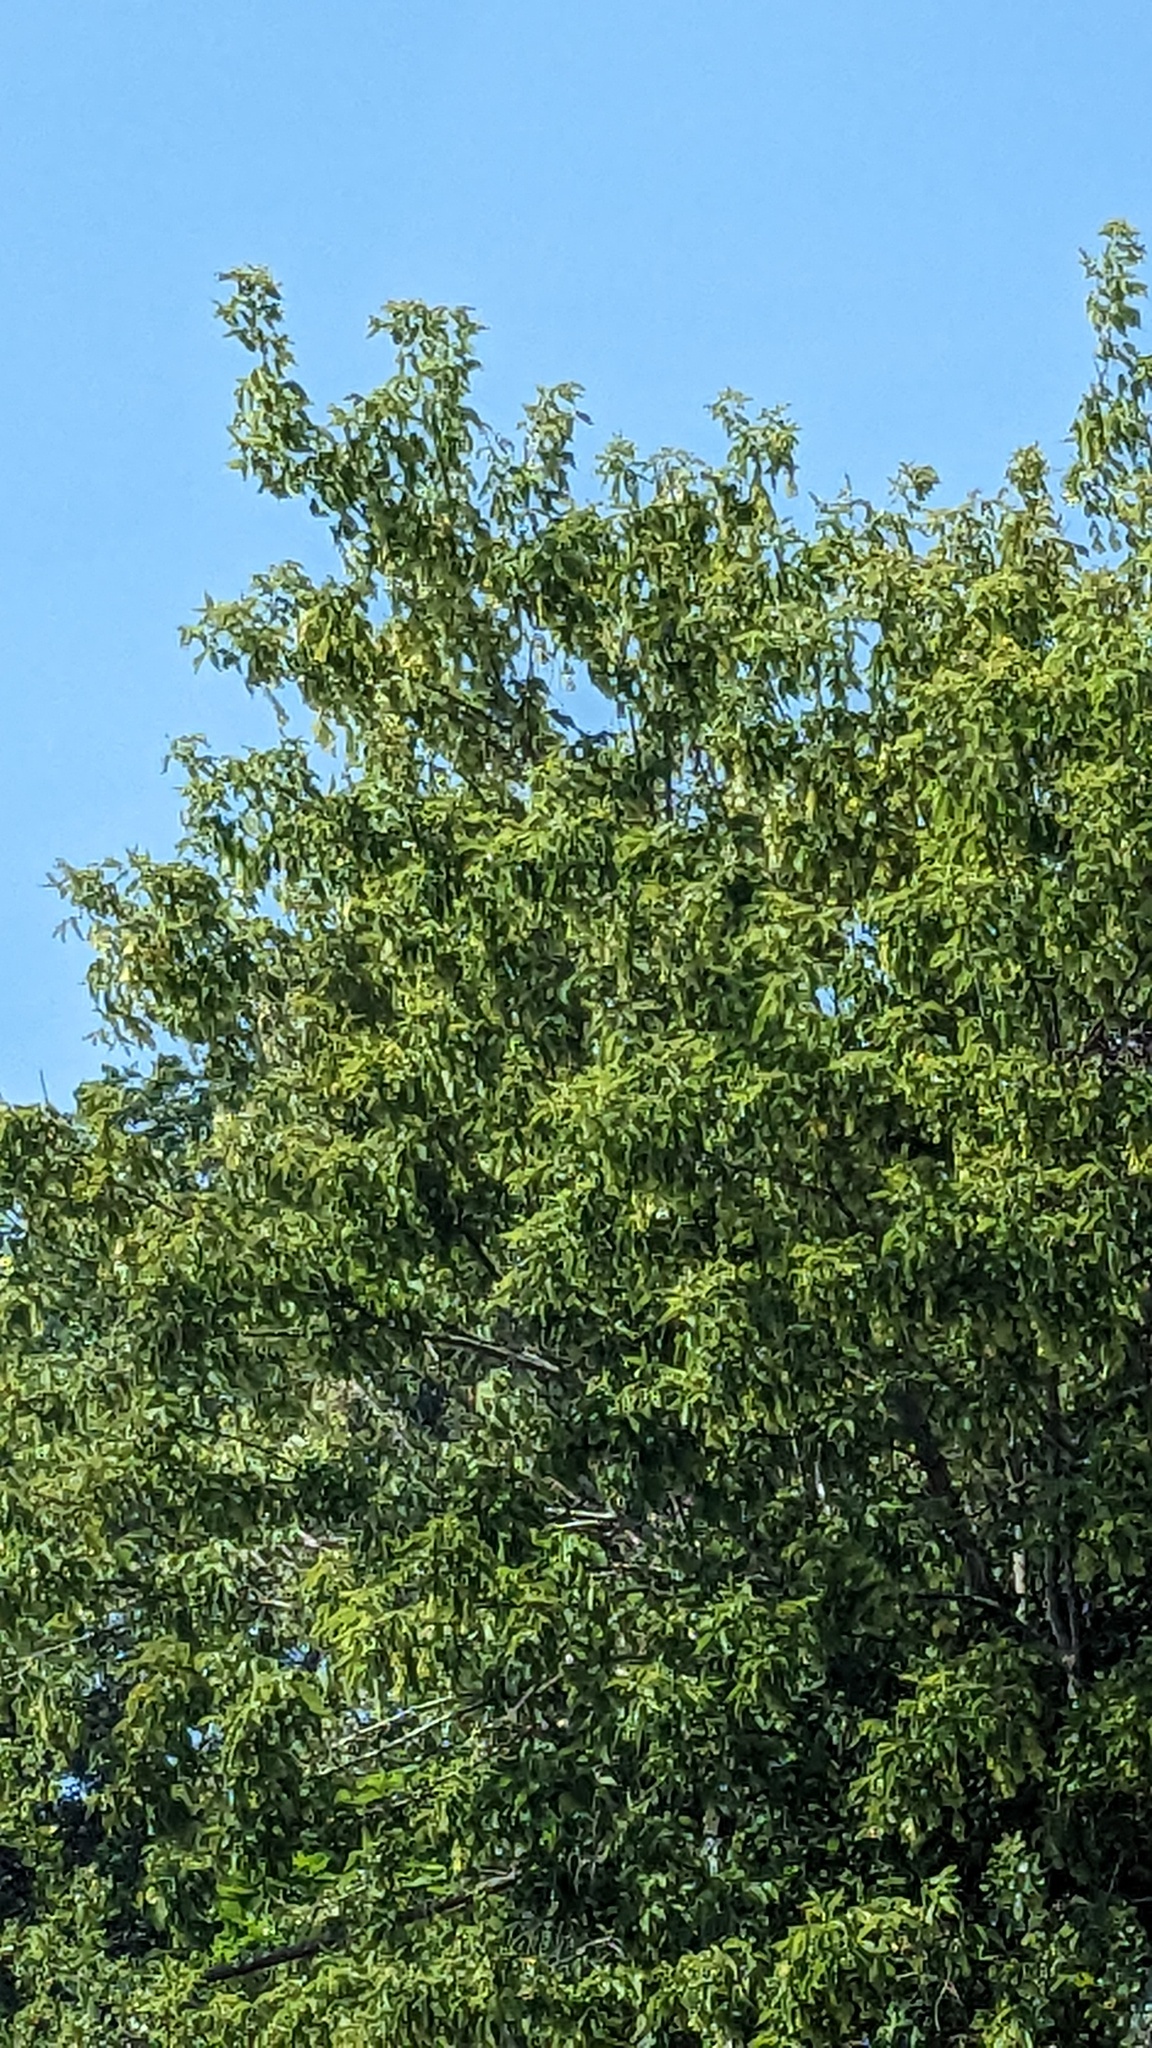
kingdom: Plantae
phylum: Tracheophyta
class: Magnoliopsida
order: Sapindales
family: Sapindaceae
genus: Acer
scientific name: Acer negundo
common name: Ashleaf maple
